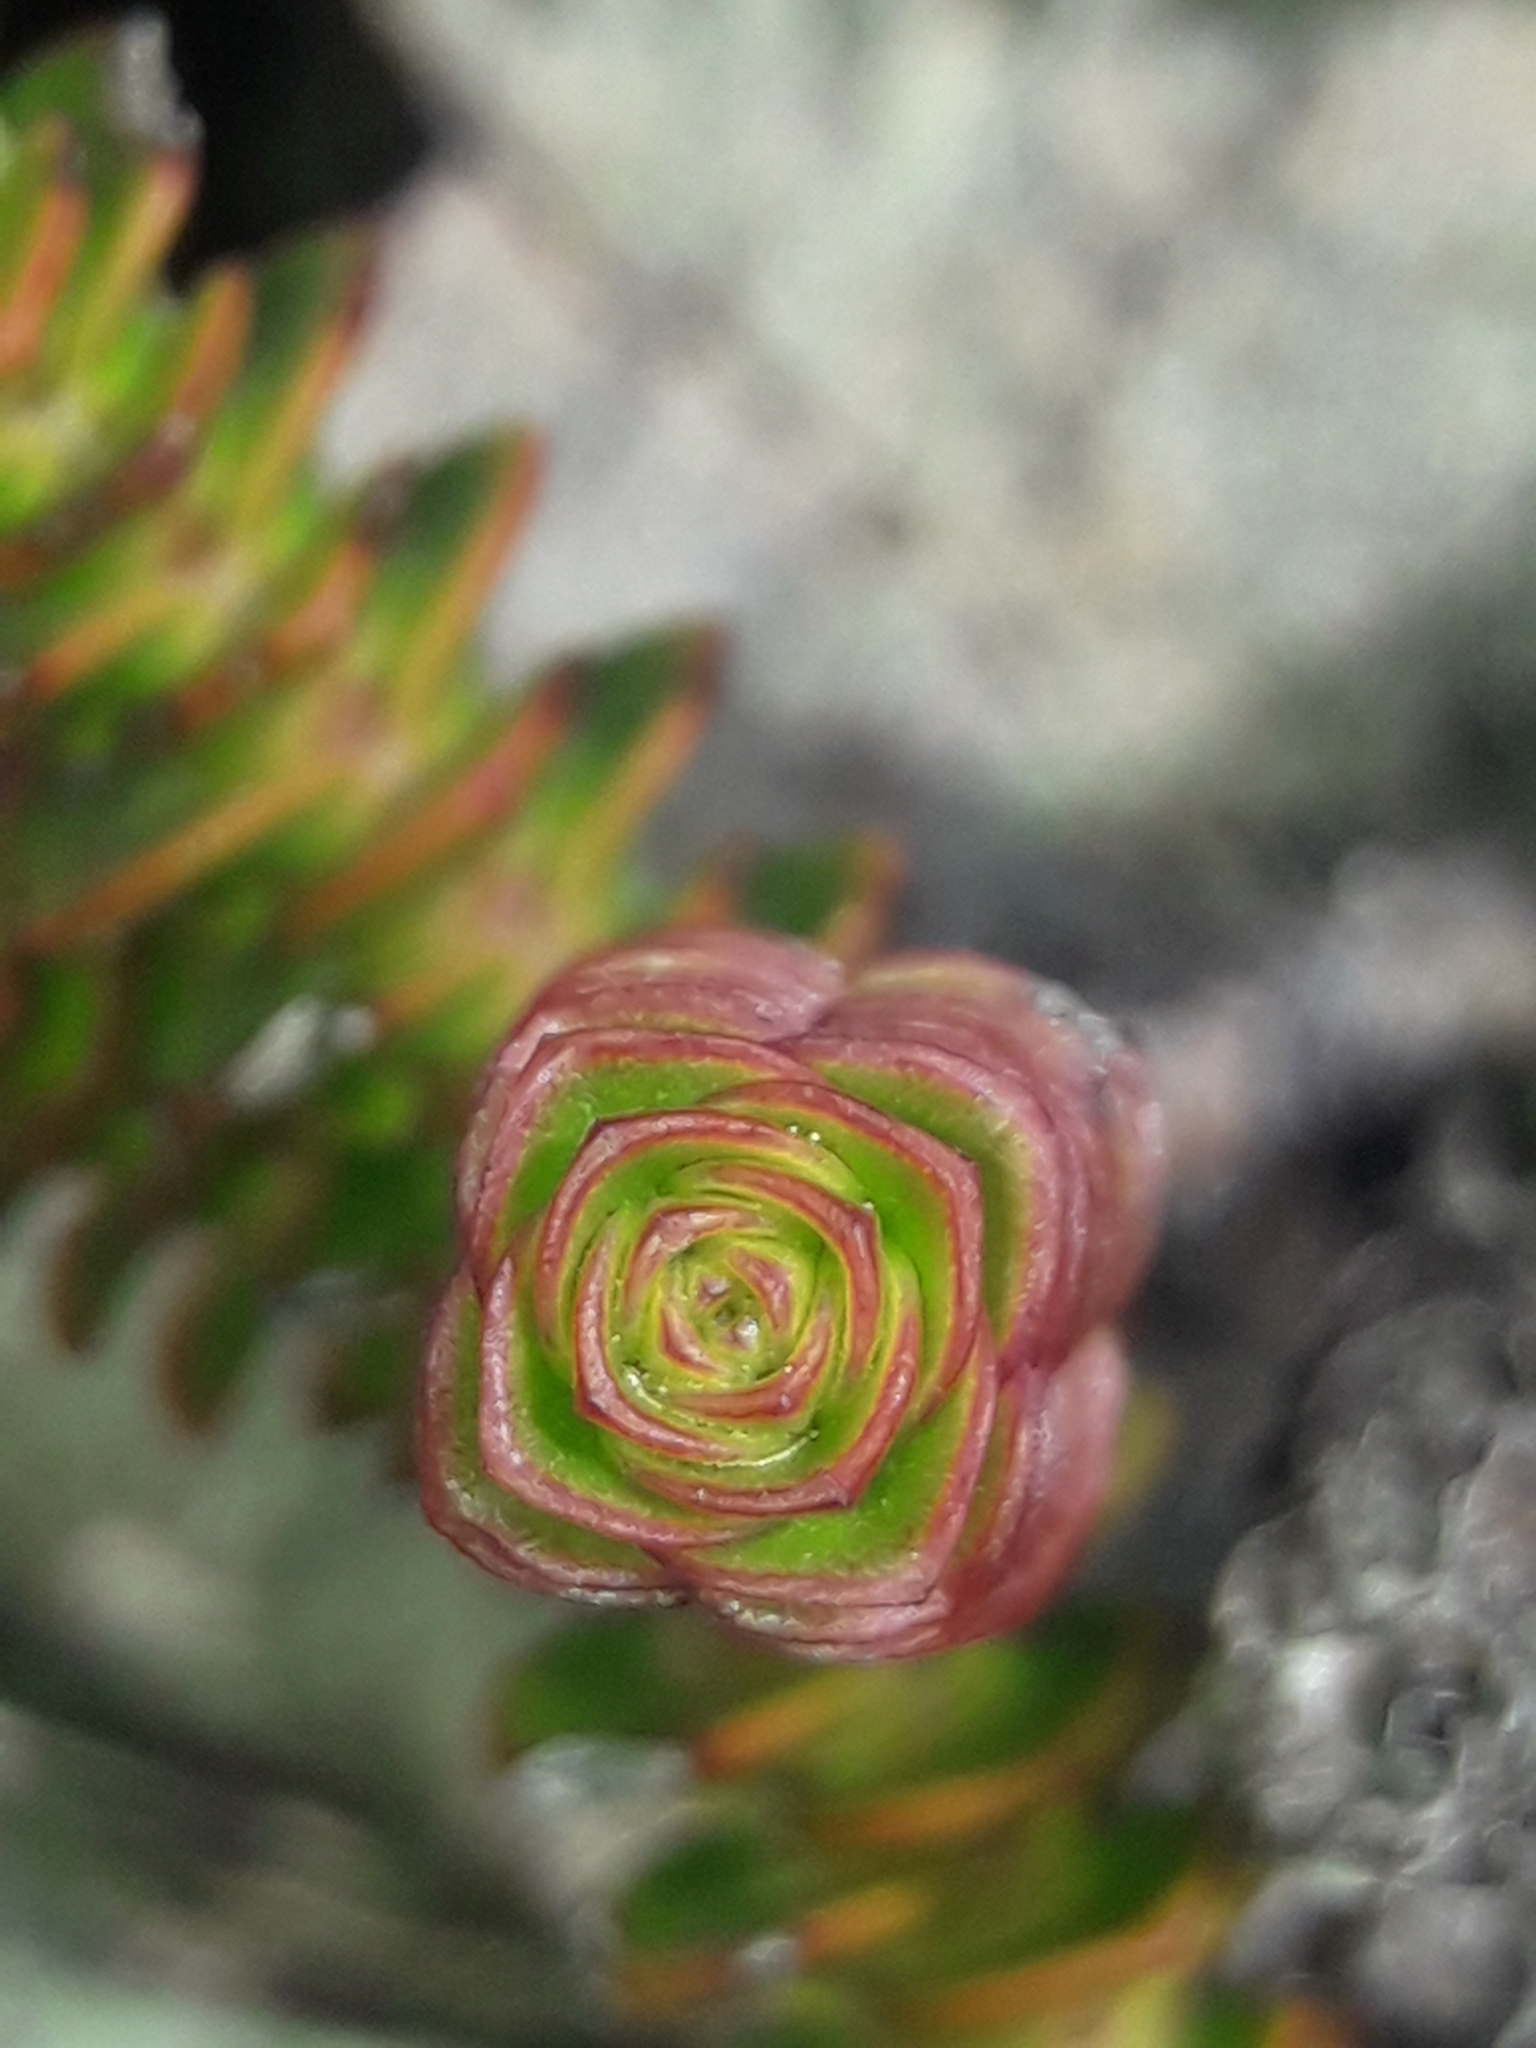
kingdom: Plantae
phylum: Tracheophyta
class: Magnoliopsida
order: Lamiales
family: Plantaginaceae
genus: Veronica
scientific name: Veronica epacridea
